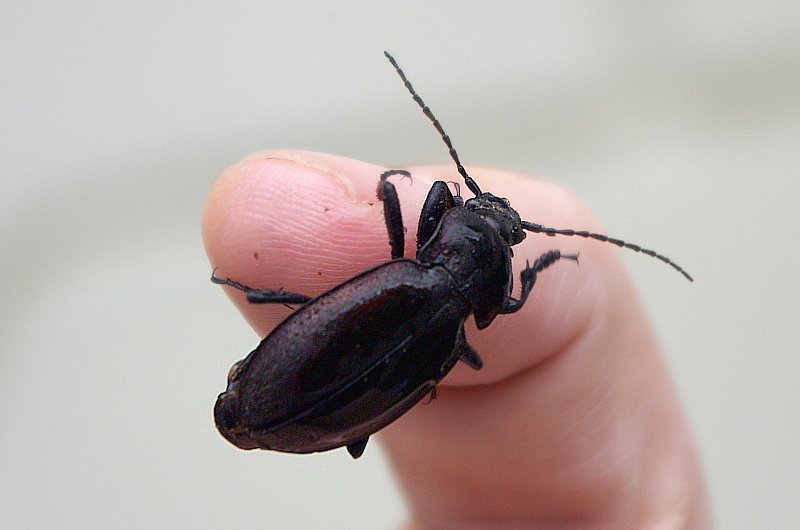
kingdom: Animalia
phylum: Arthropoda
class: Insecta
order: Coleoptera
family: Carabidae
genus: Carabus
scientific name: Carabus nemoralis
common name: European ground beetle
